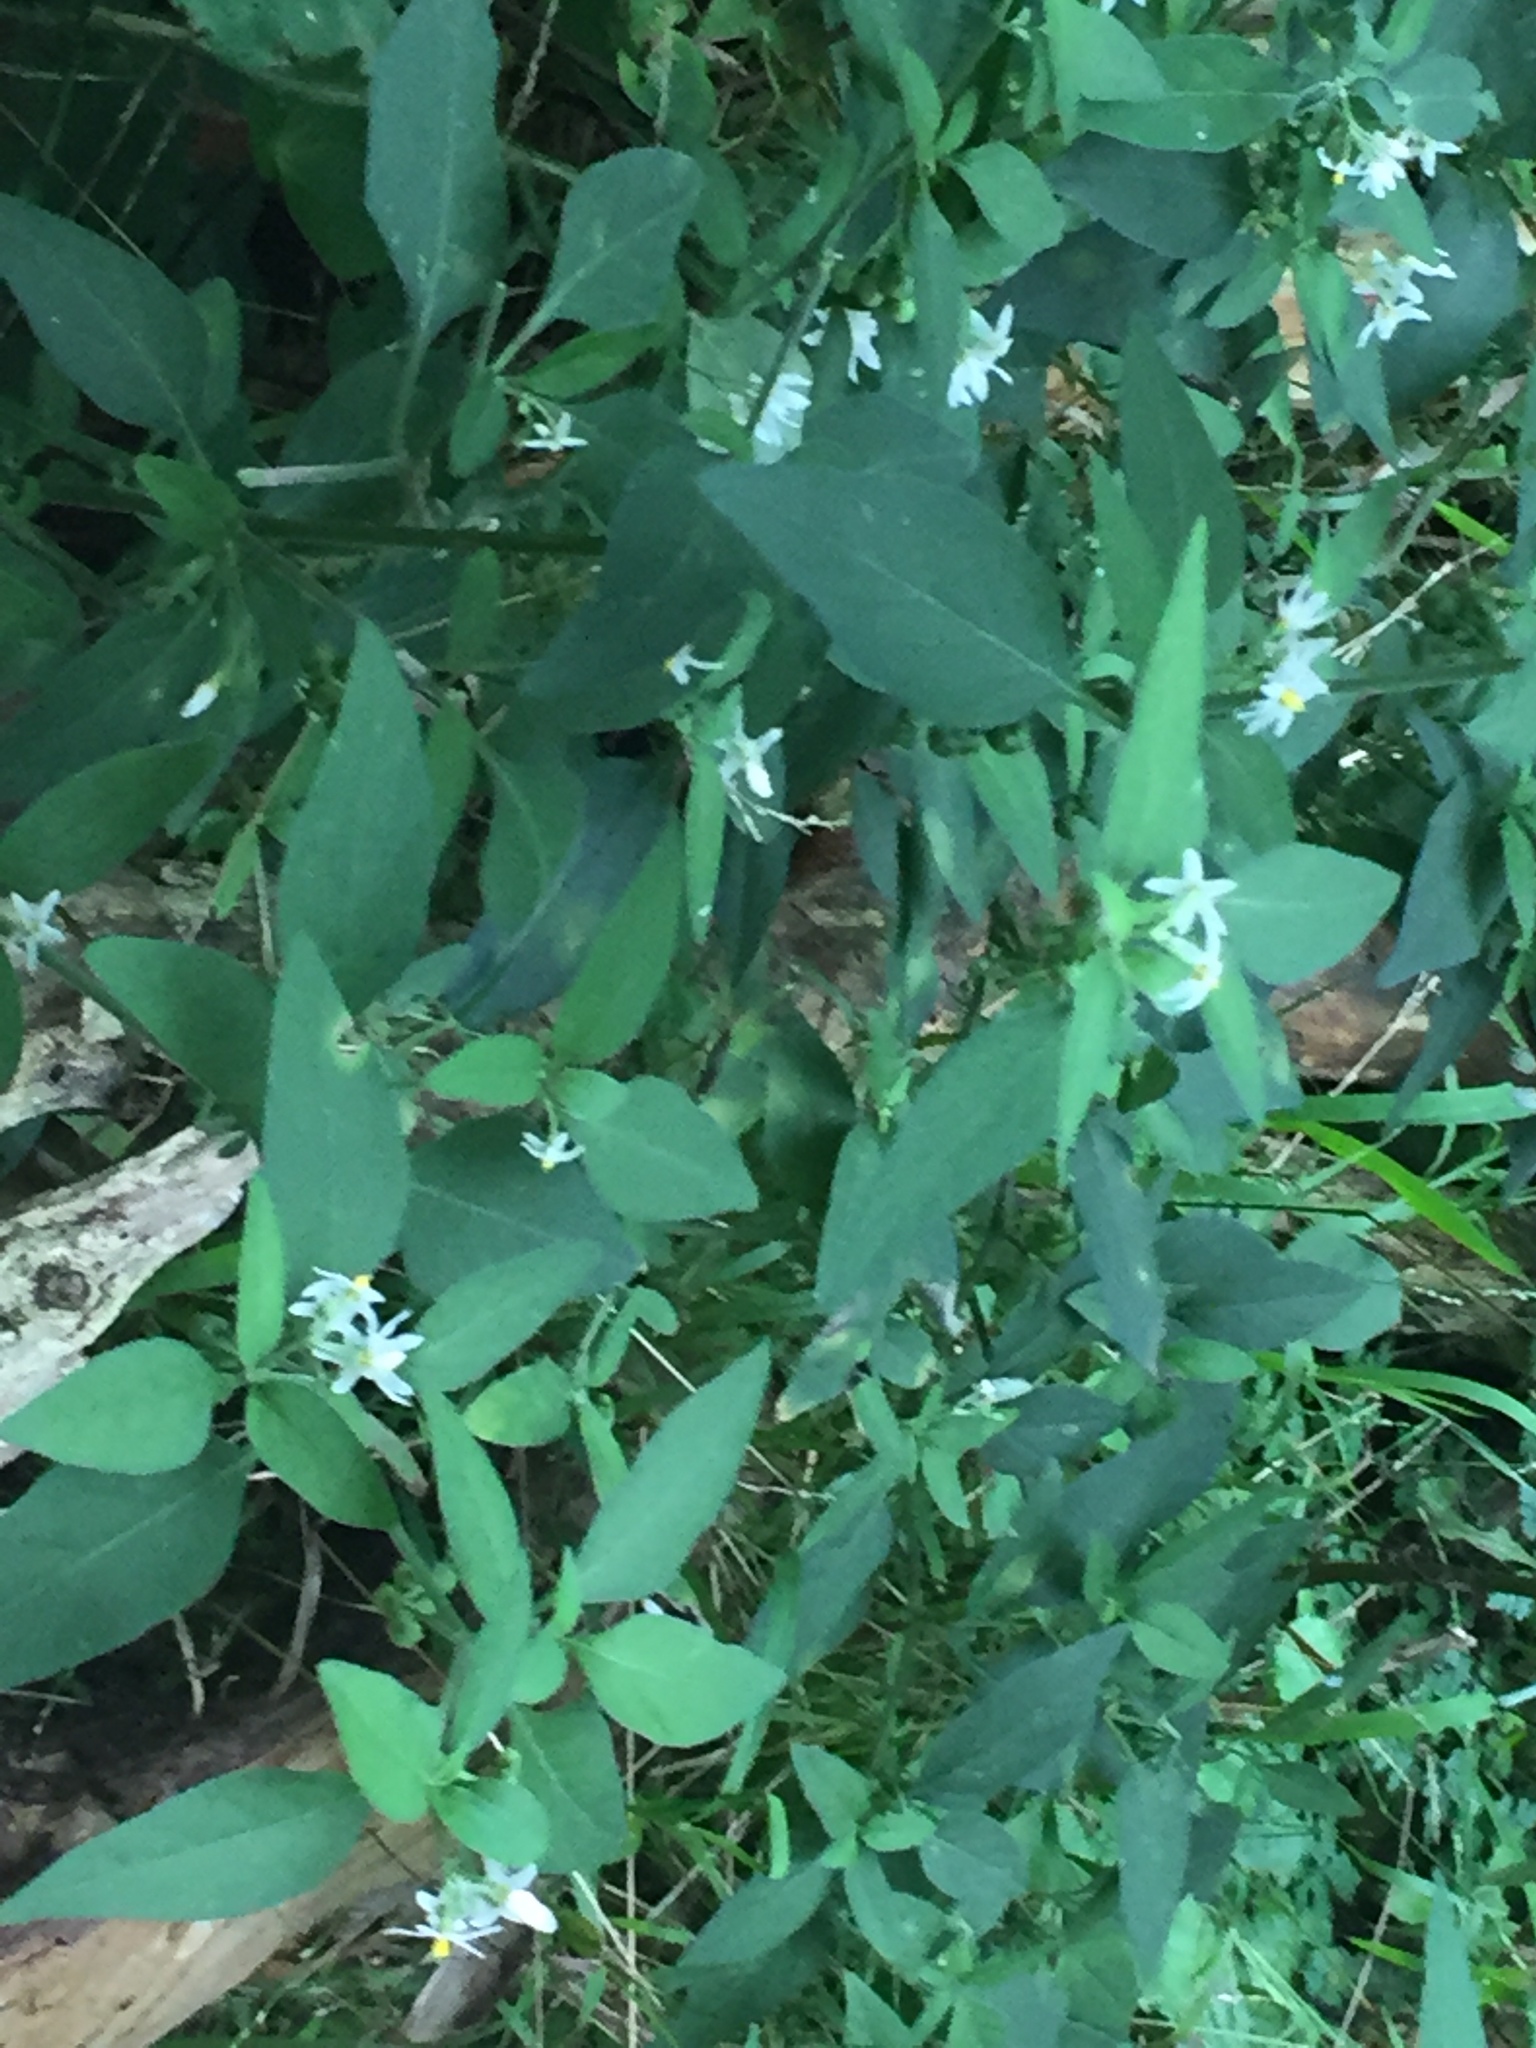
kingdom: Plantae
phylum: Tracheophyta
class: Magnoliopsida
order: Solanales
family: Solanaceae
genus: Solanum
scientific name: Solanum chenopodioides
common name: Tall nightshade
